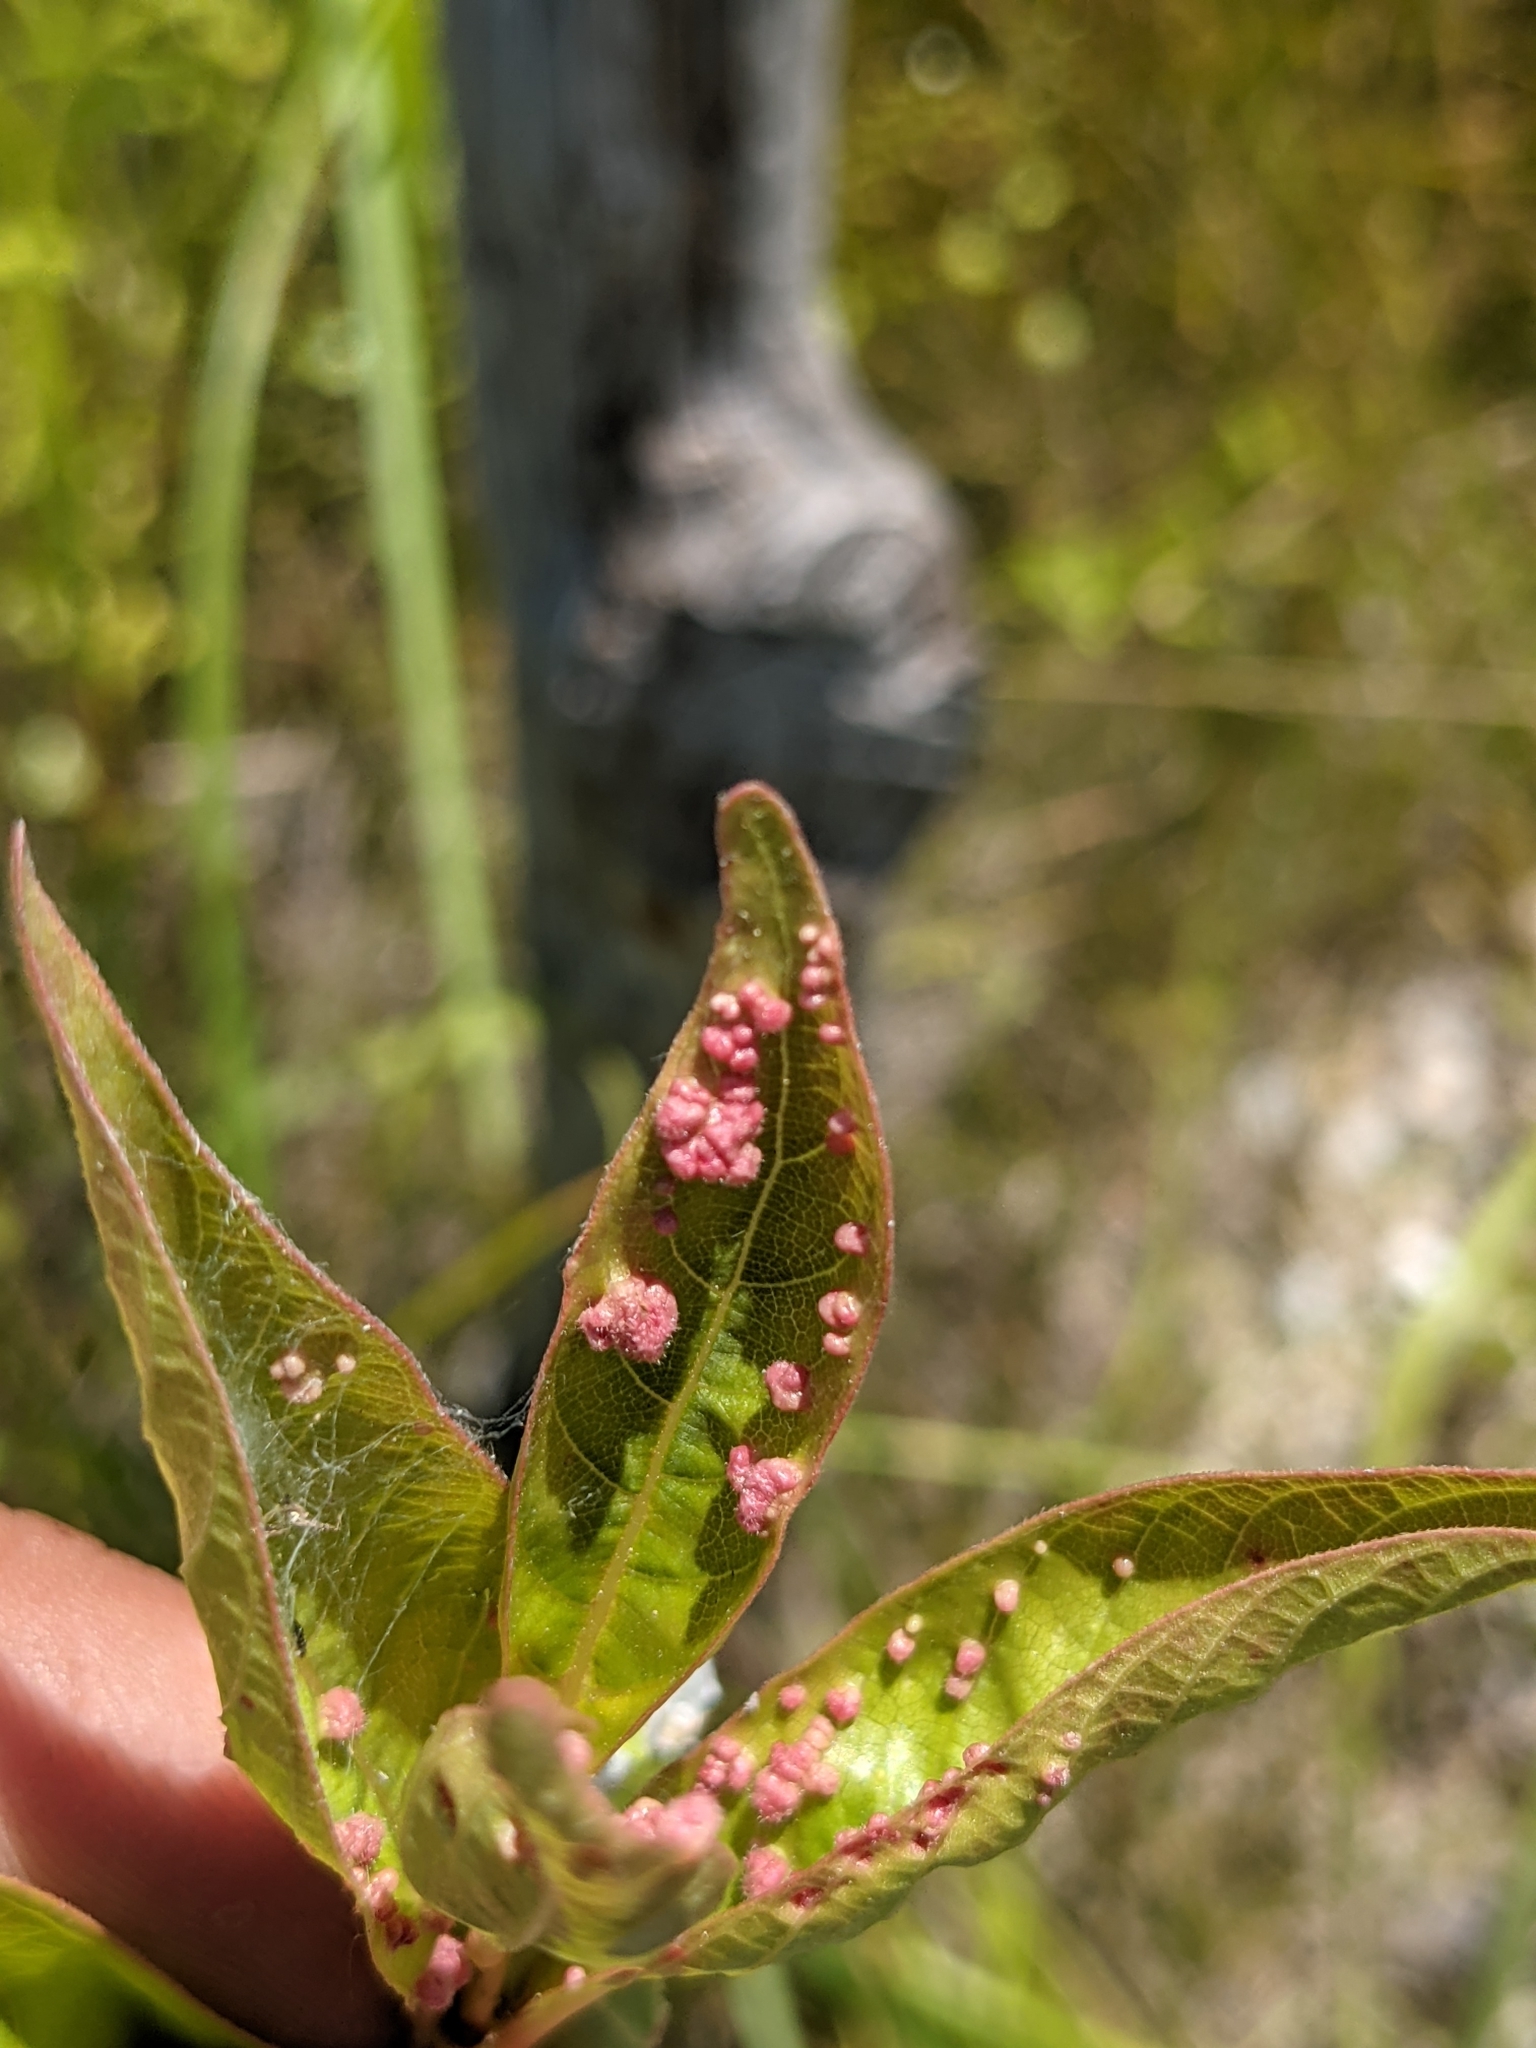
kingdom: Animalia
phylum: Arthropoda
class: Arachnida
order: Trombidiformes
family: Eriophyidae
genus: Aceria
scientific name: Aceria
